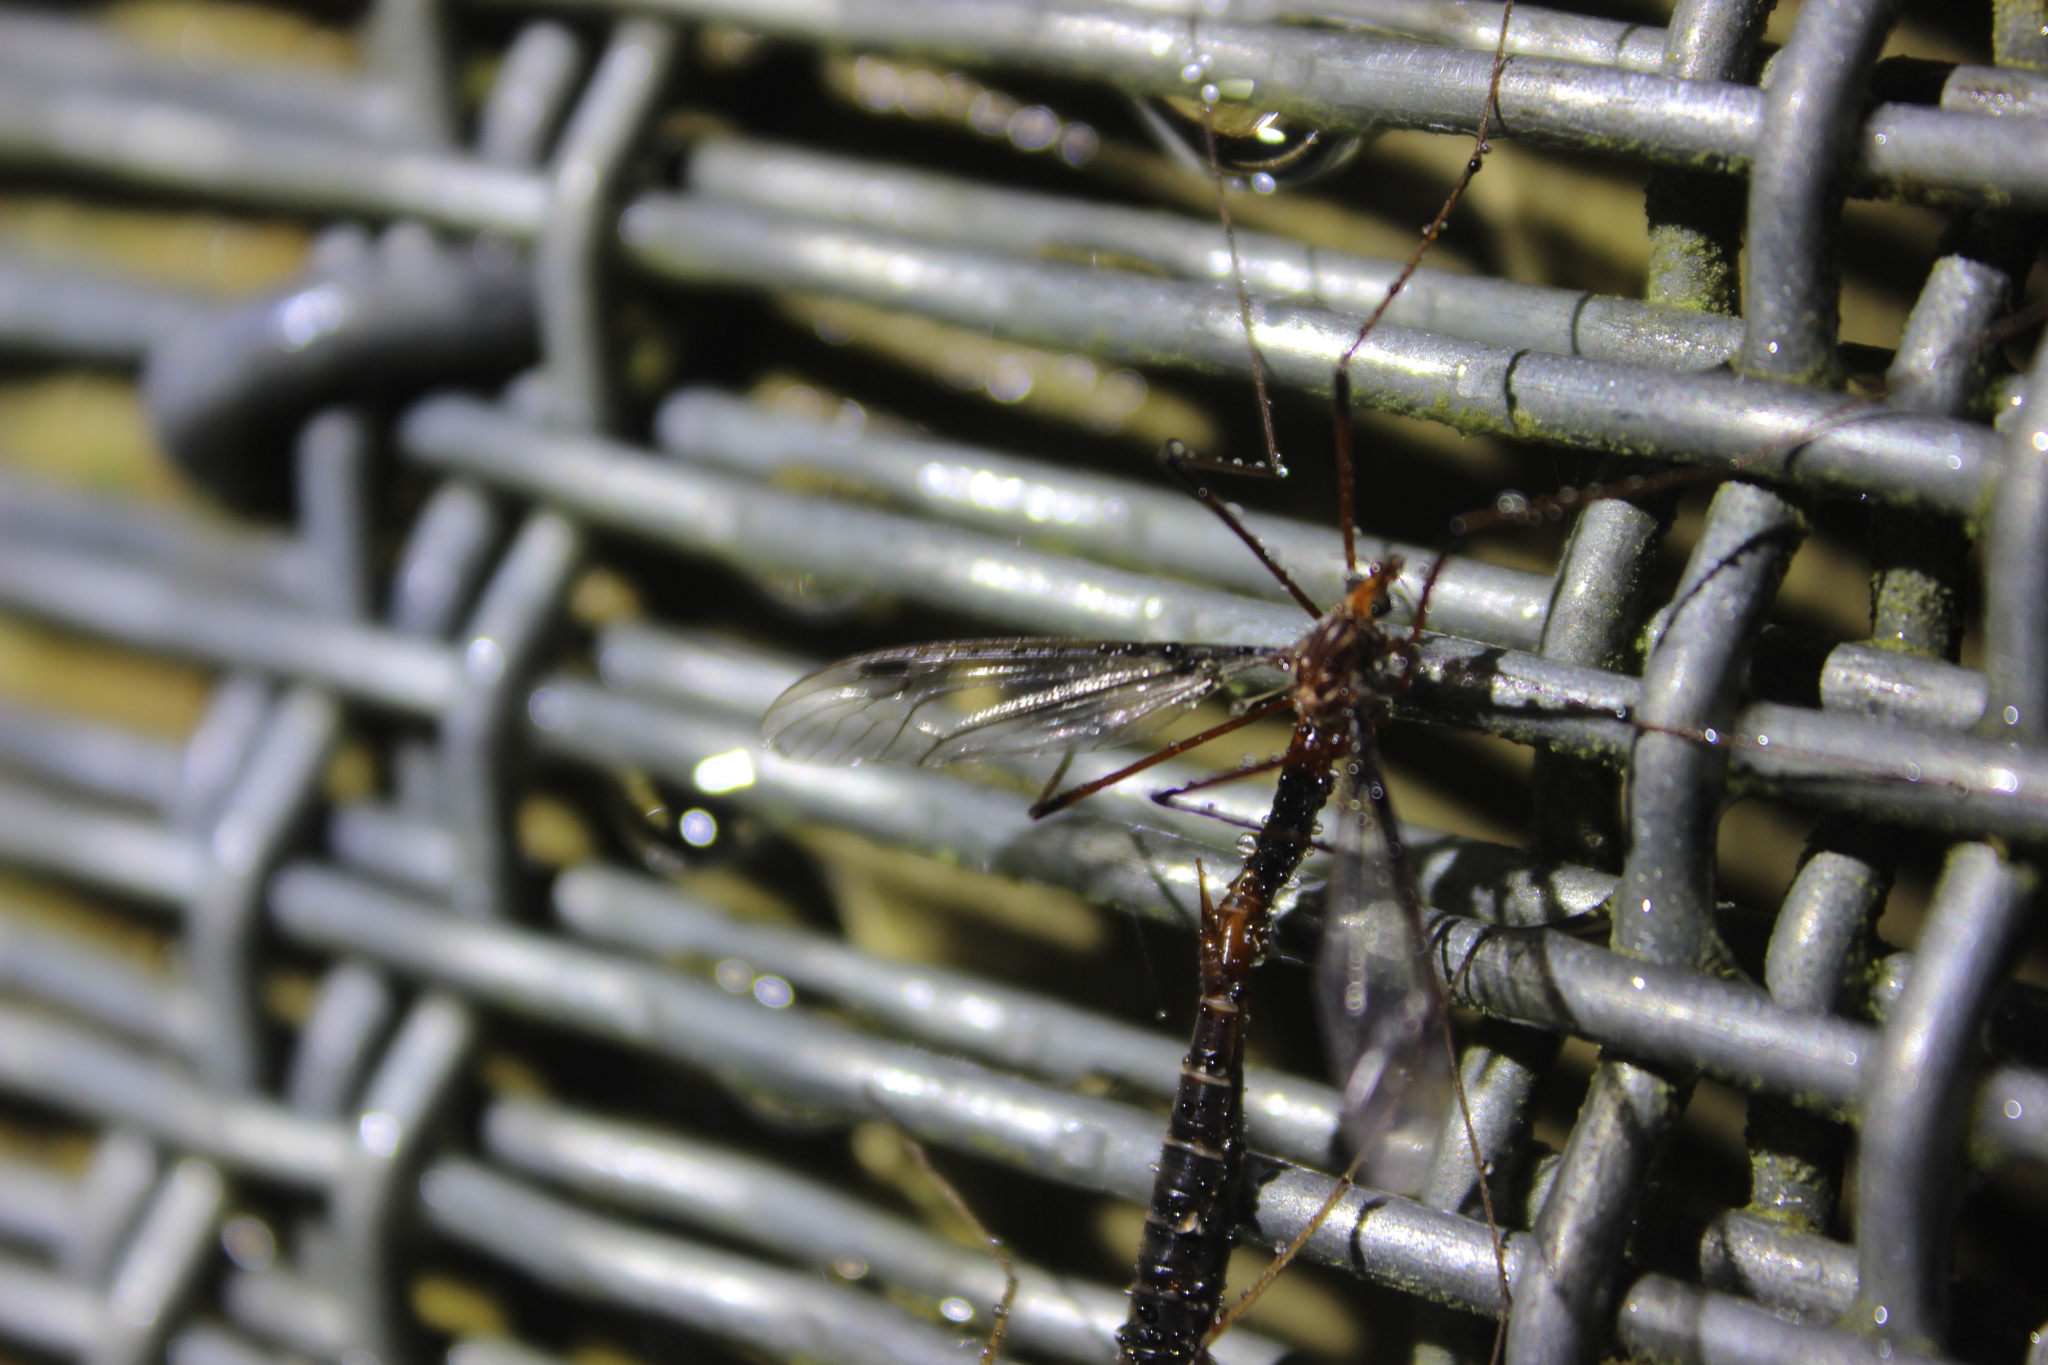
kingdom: Animalia
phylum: Arthropoda
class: Insecta
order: Diptera
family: Tipulidae
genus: Leptotarsus
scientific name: Leptotarsus heterogamus
